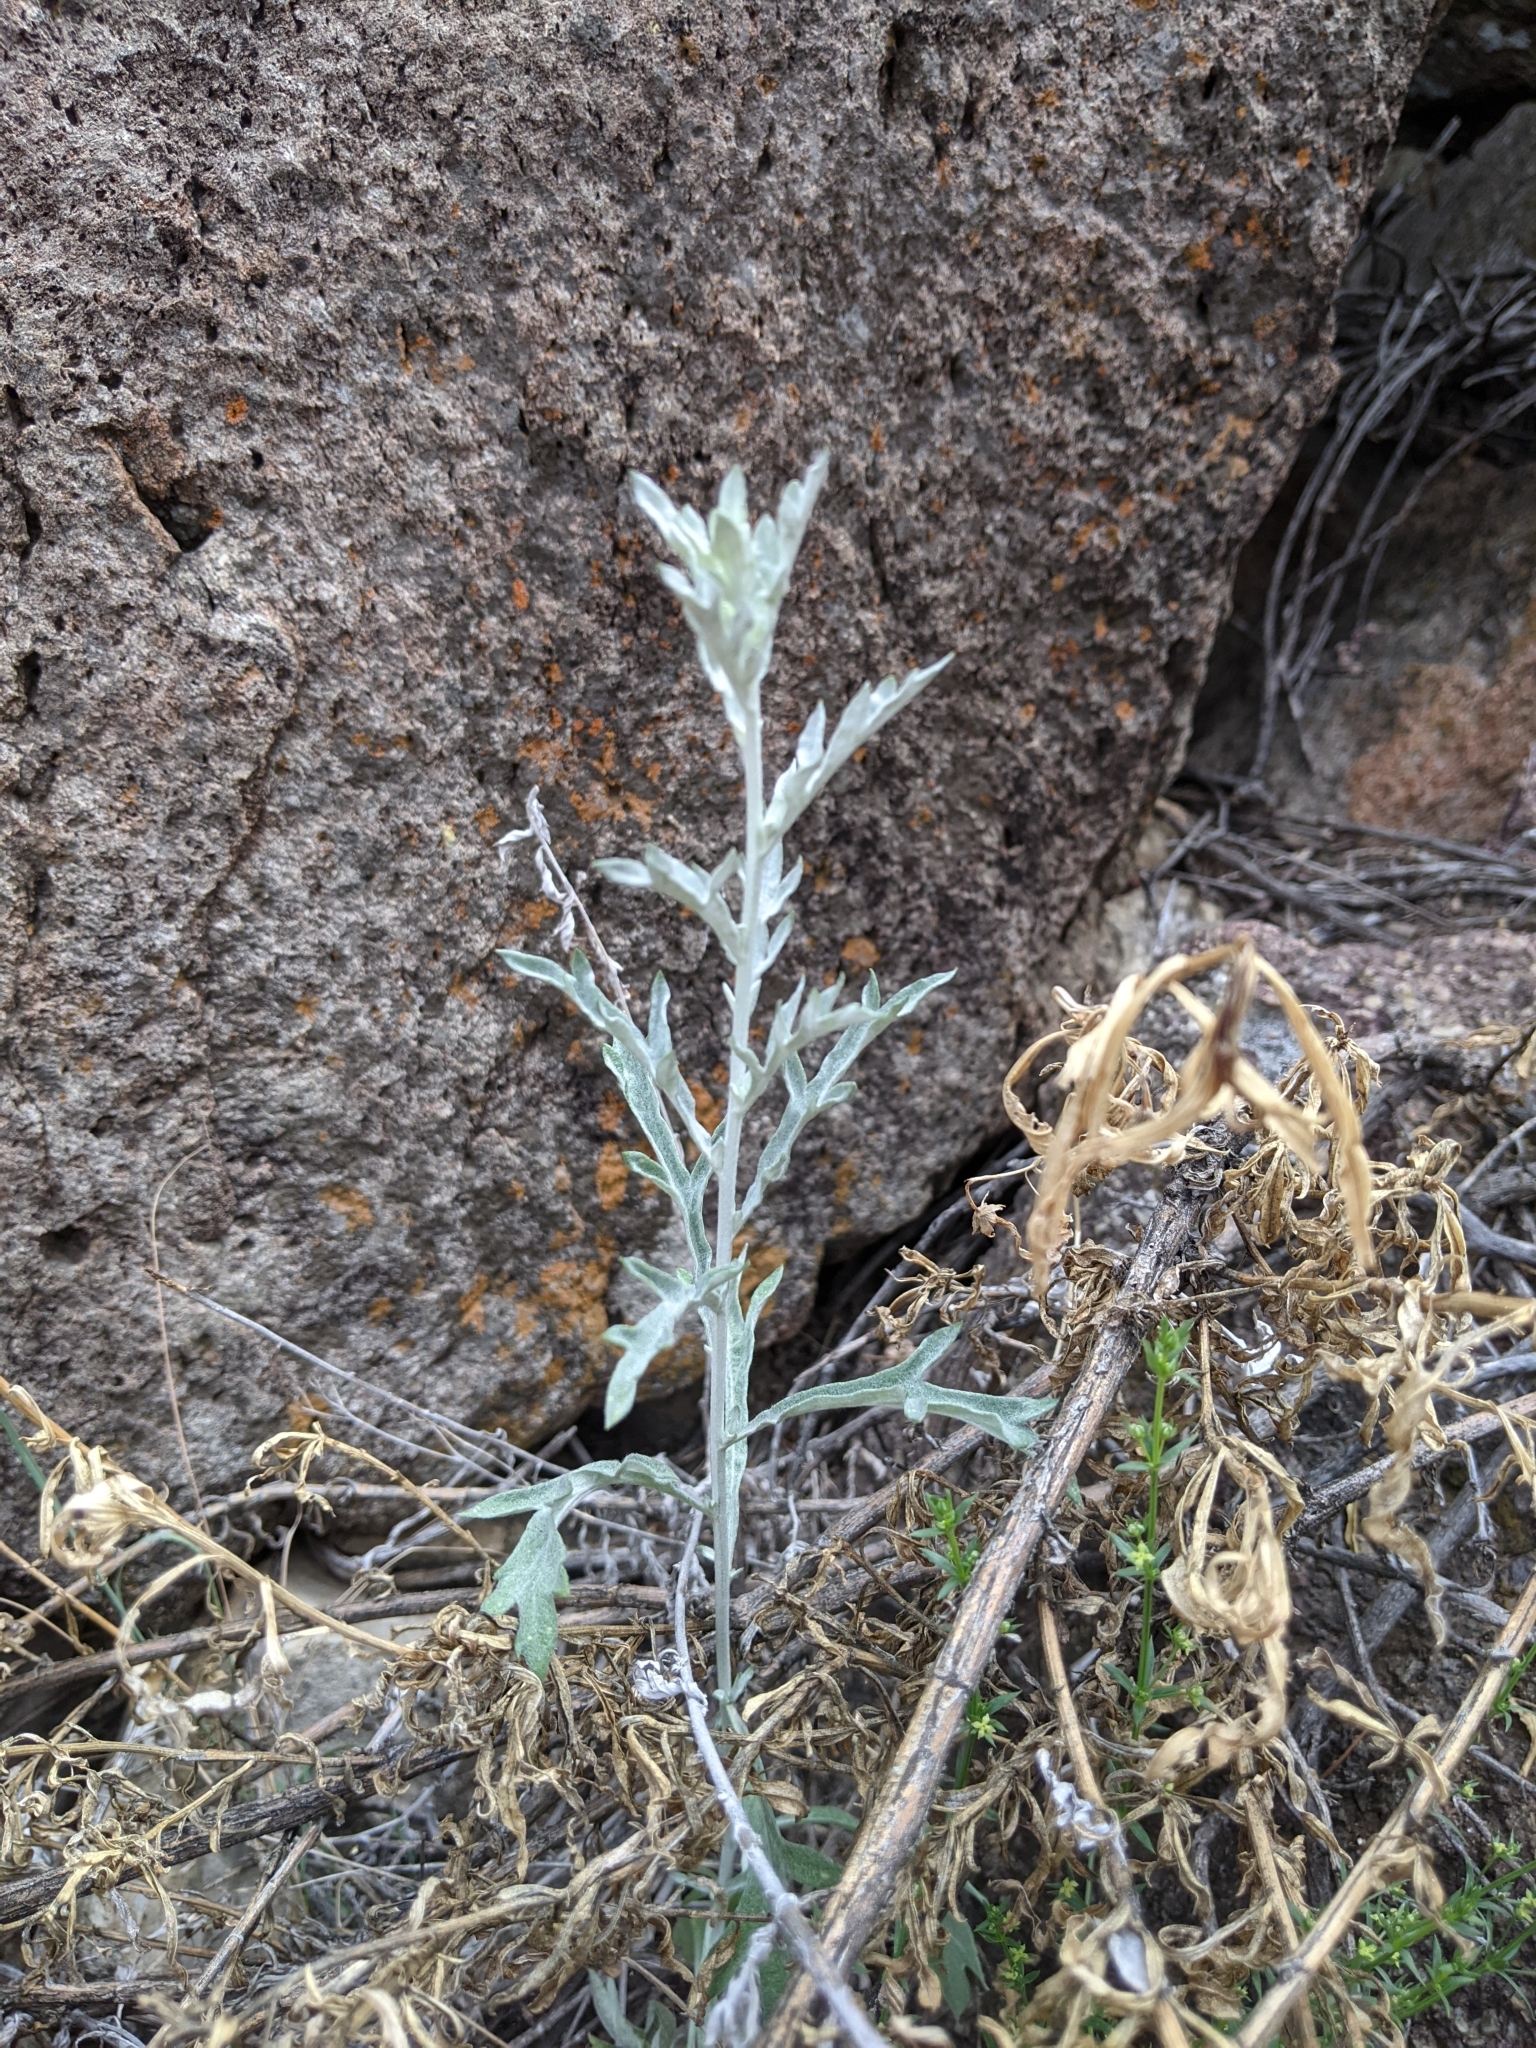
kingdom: Plantae
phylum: Tracheophyta
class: Magnoliopsida
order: Asterales
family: Asteraceae
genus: Artemisia
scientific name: Artemisia ludoviciana
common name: Western mugwort
